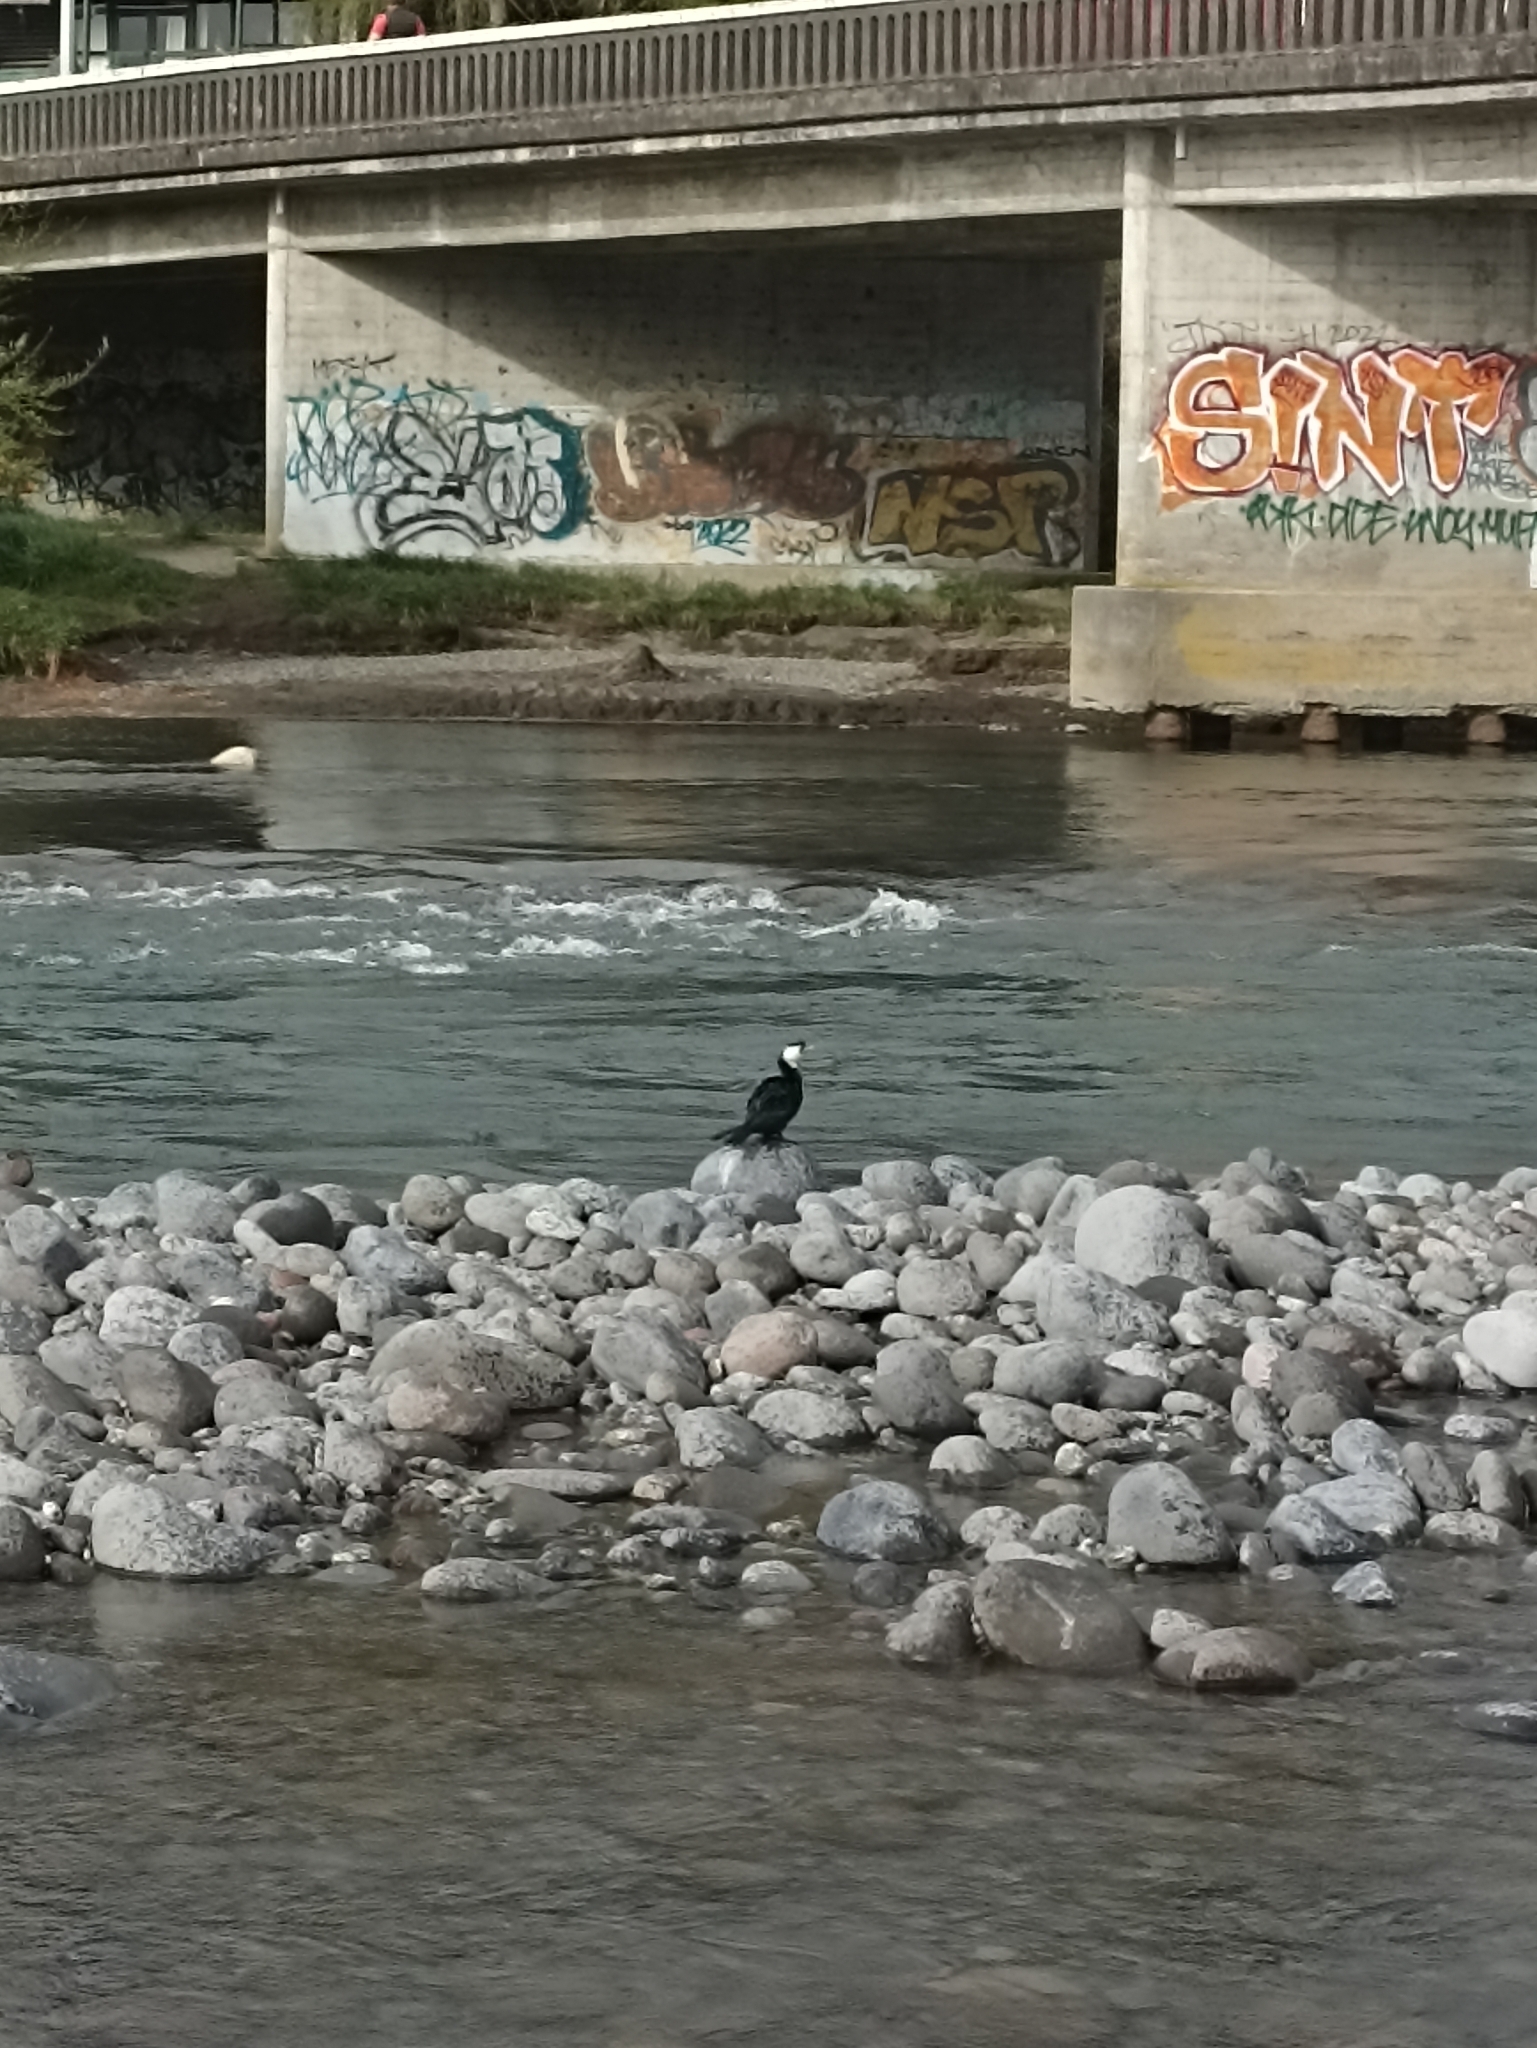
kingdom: Animalia
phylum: Chordata
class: Aves
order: Suliformes
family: Phalacrocoracidae
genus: Microcarbo
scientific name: Microcarbo melanoleucos
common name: Little pied cormorant
